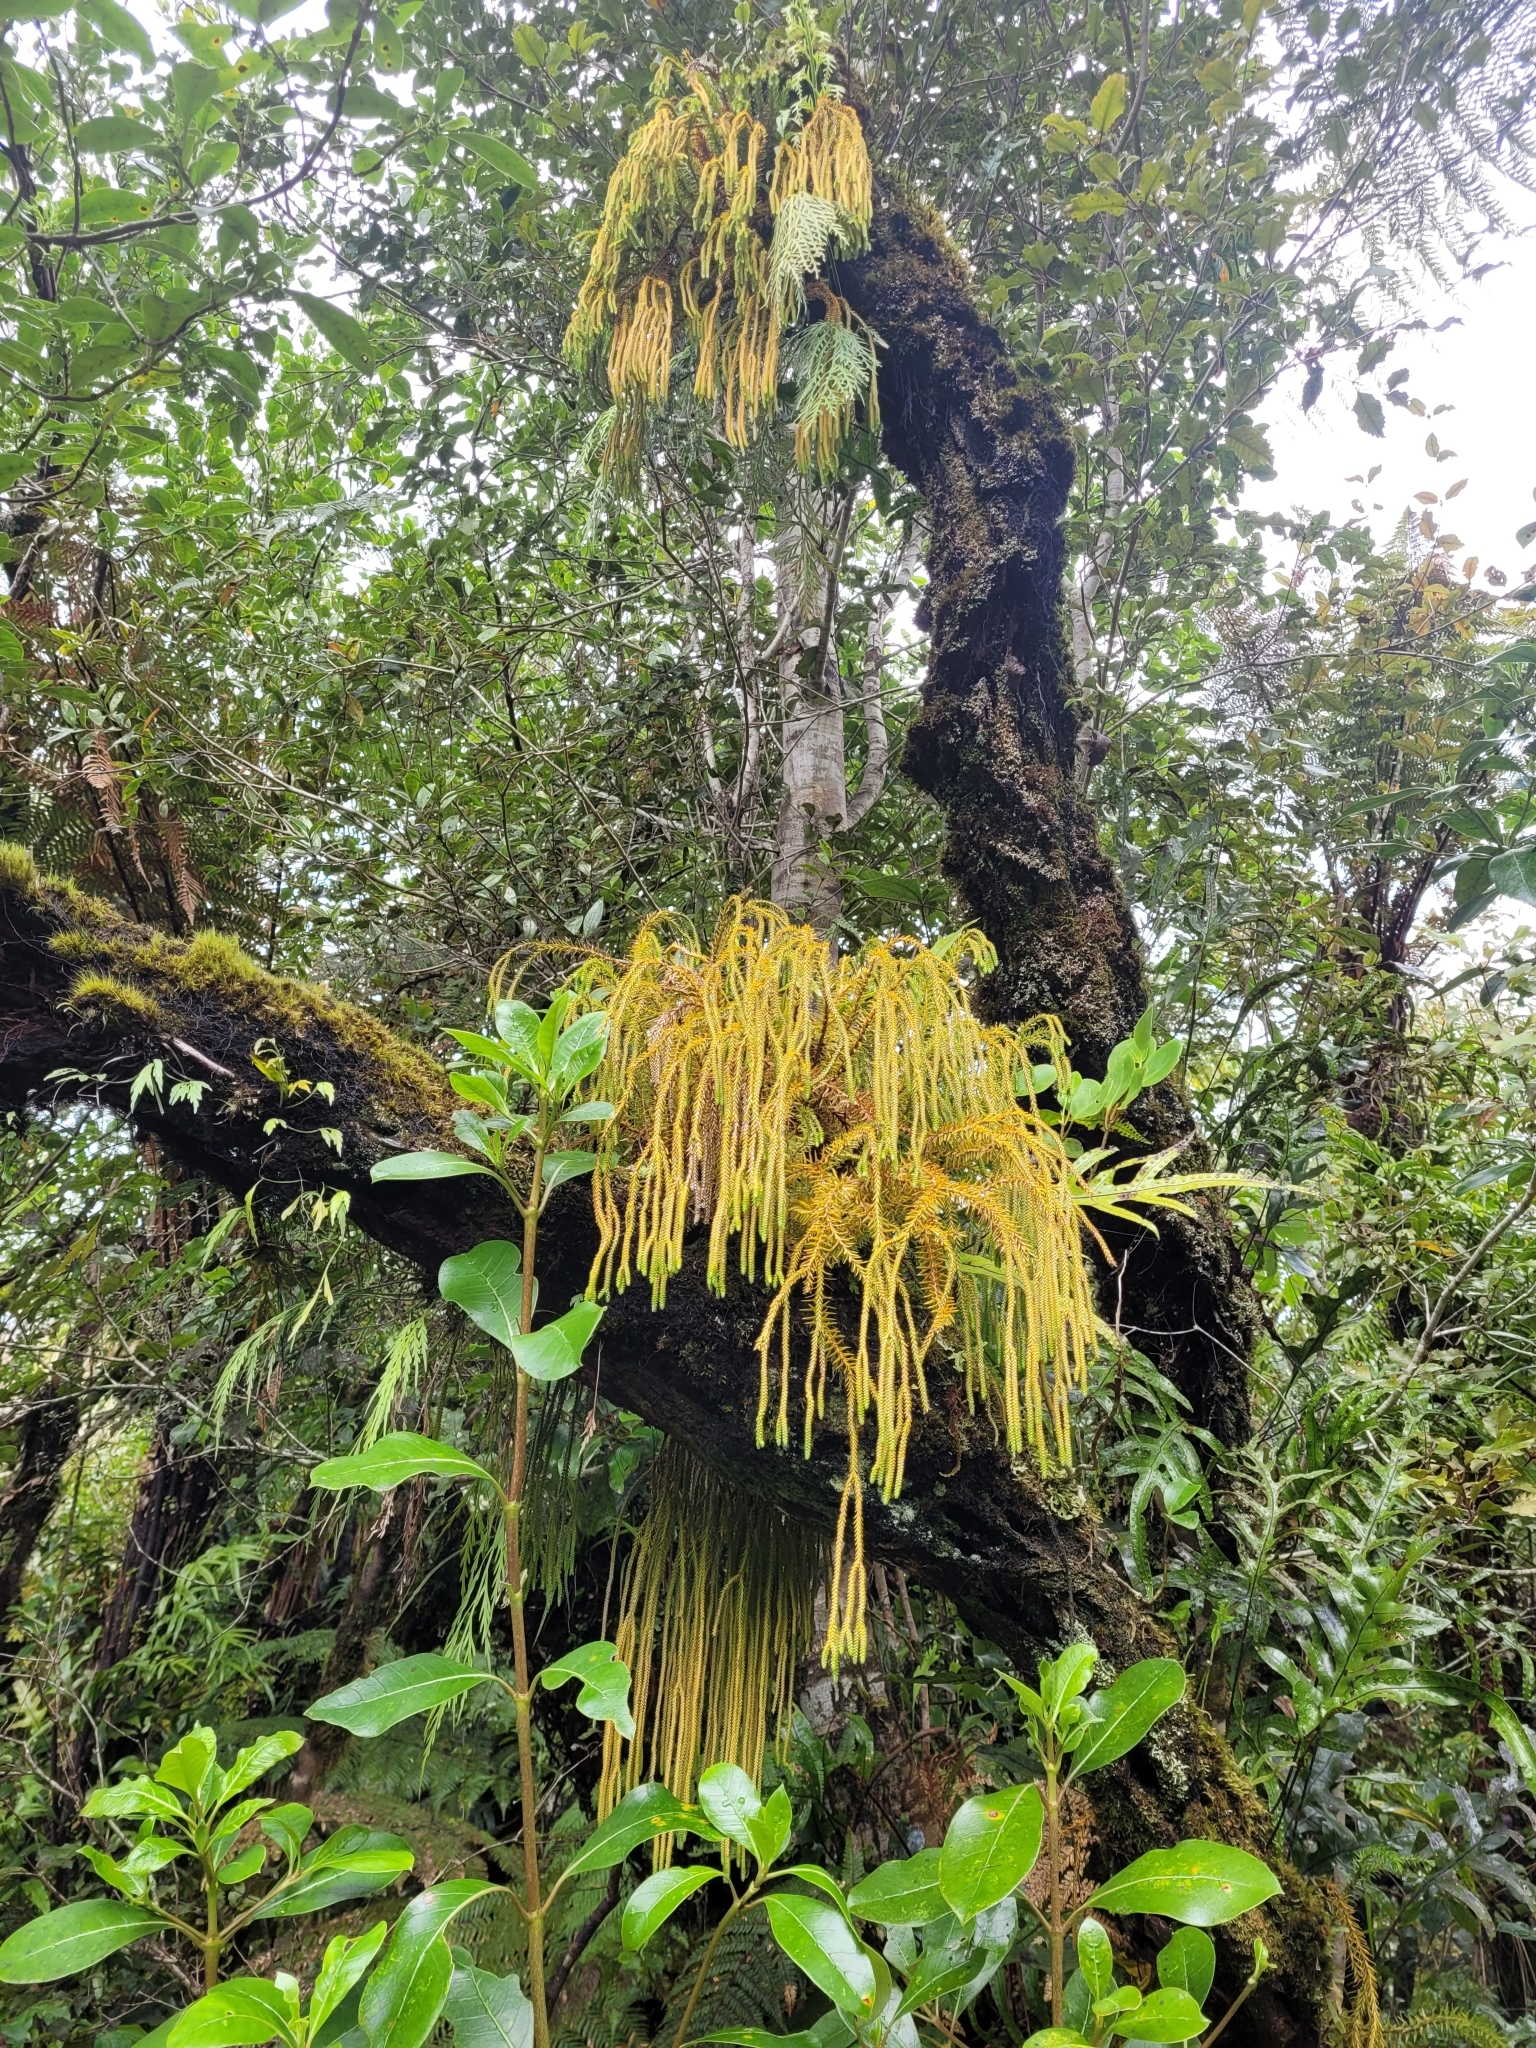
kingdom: Plantae
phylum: Tracheophyta
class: Lycopodiopsida
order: Lycopodiales
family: Lycopodiaceae
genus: Phlegmariurus
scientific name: Phlegmariurus varius
